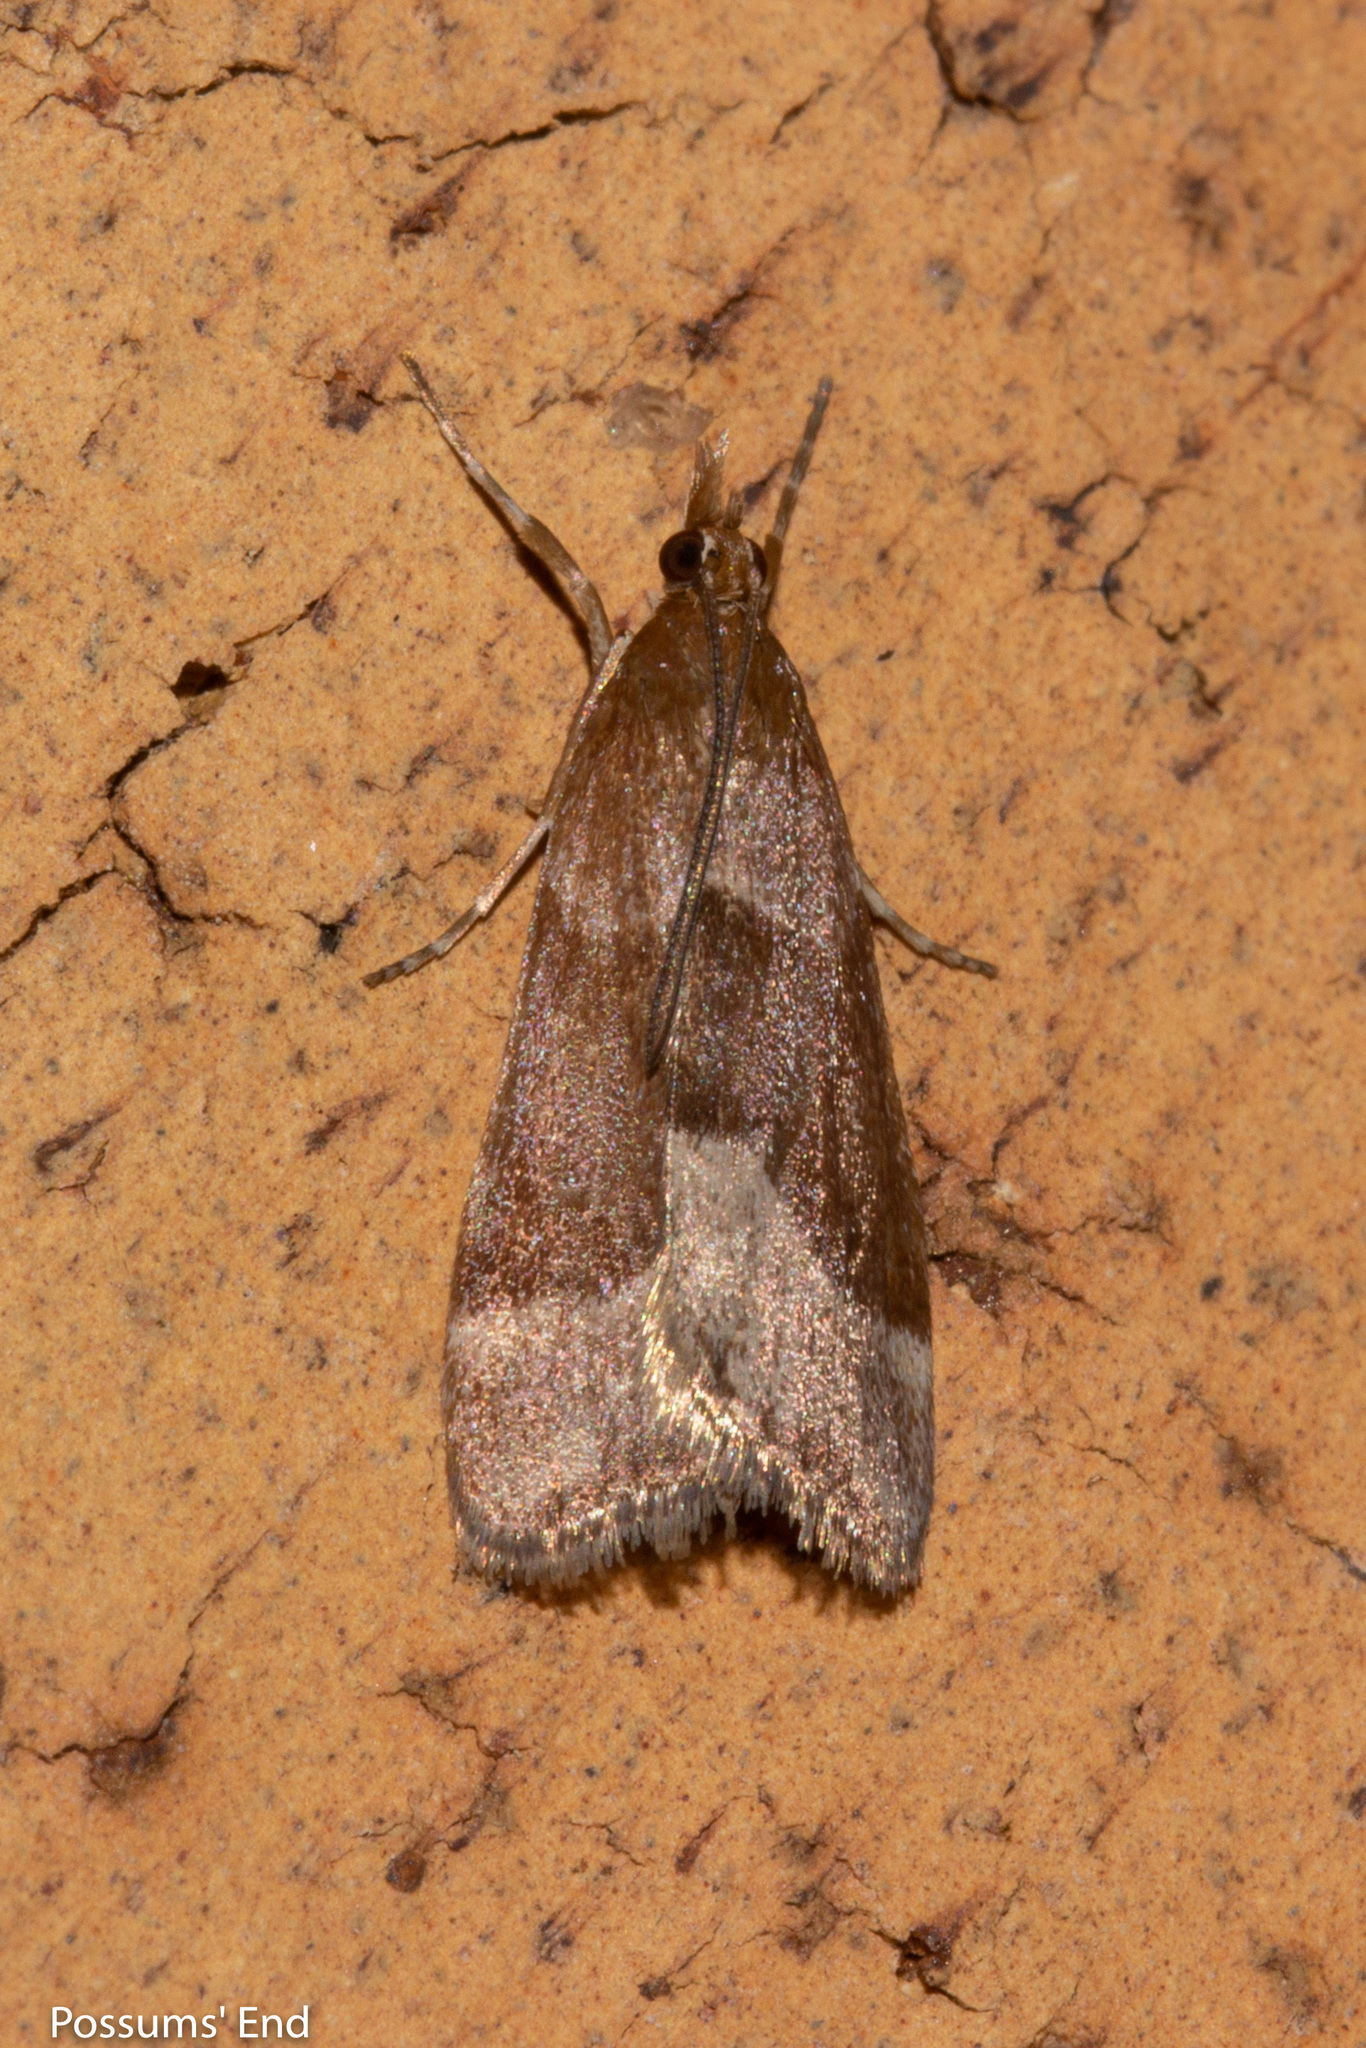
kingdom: Animalia
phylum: Arthropoda
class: Insecta
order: Lepidoptera
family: Crambidae
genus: Eudonia
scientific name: Eudonia feredayi
